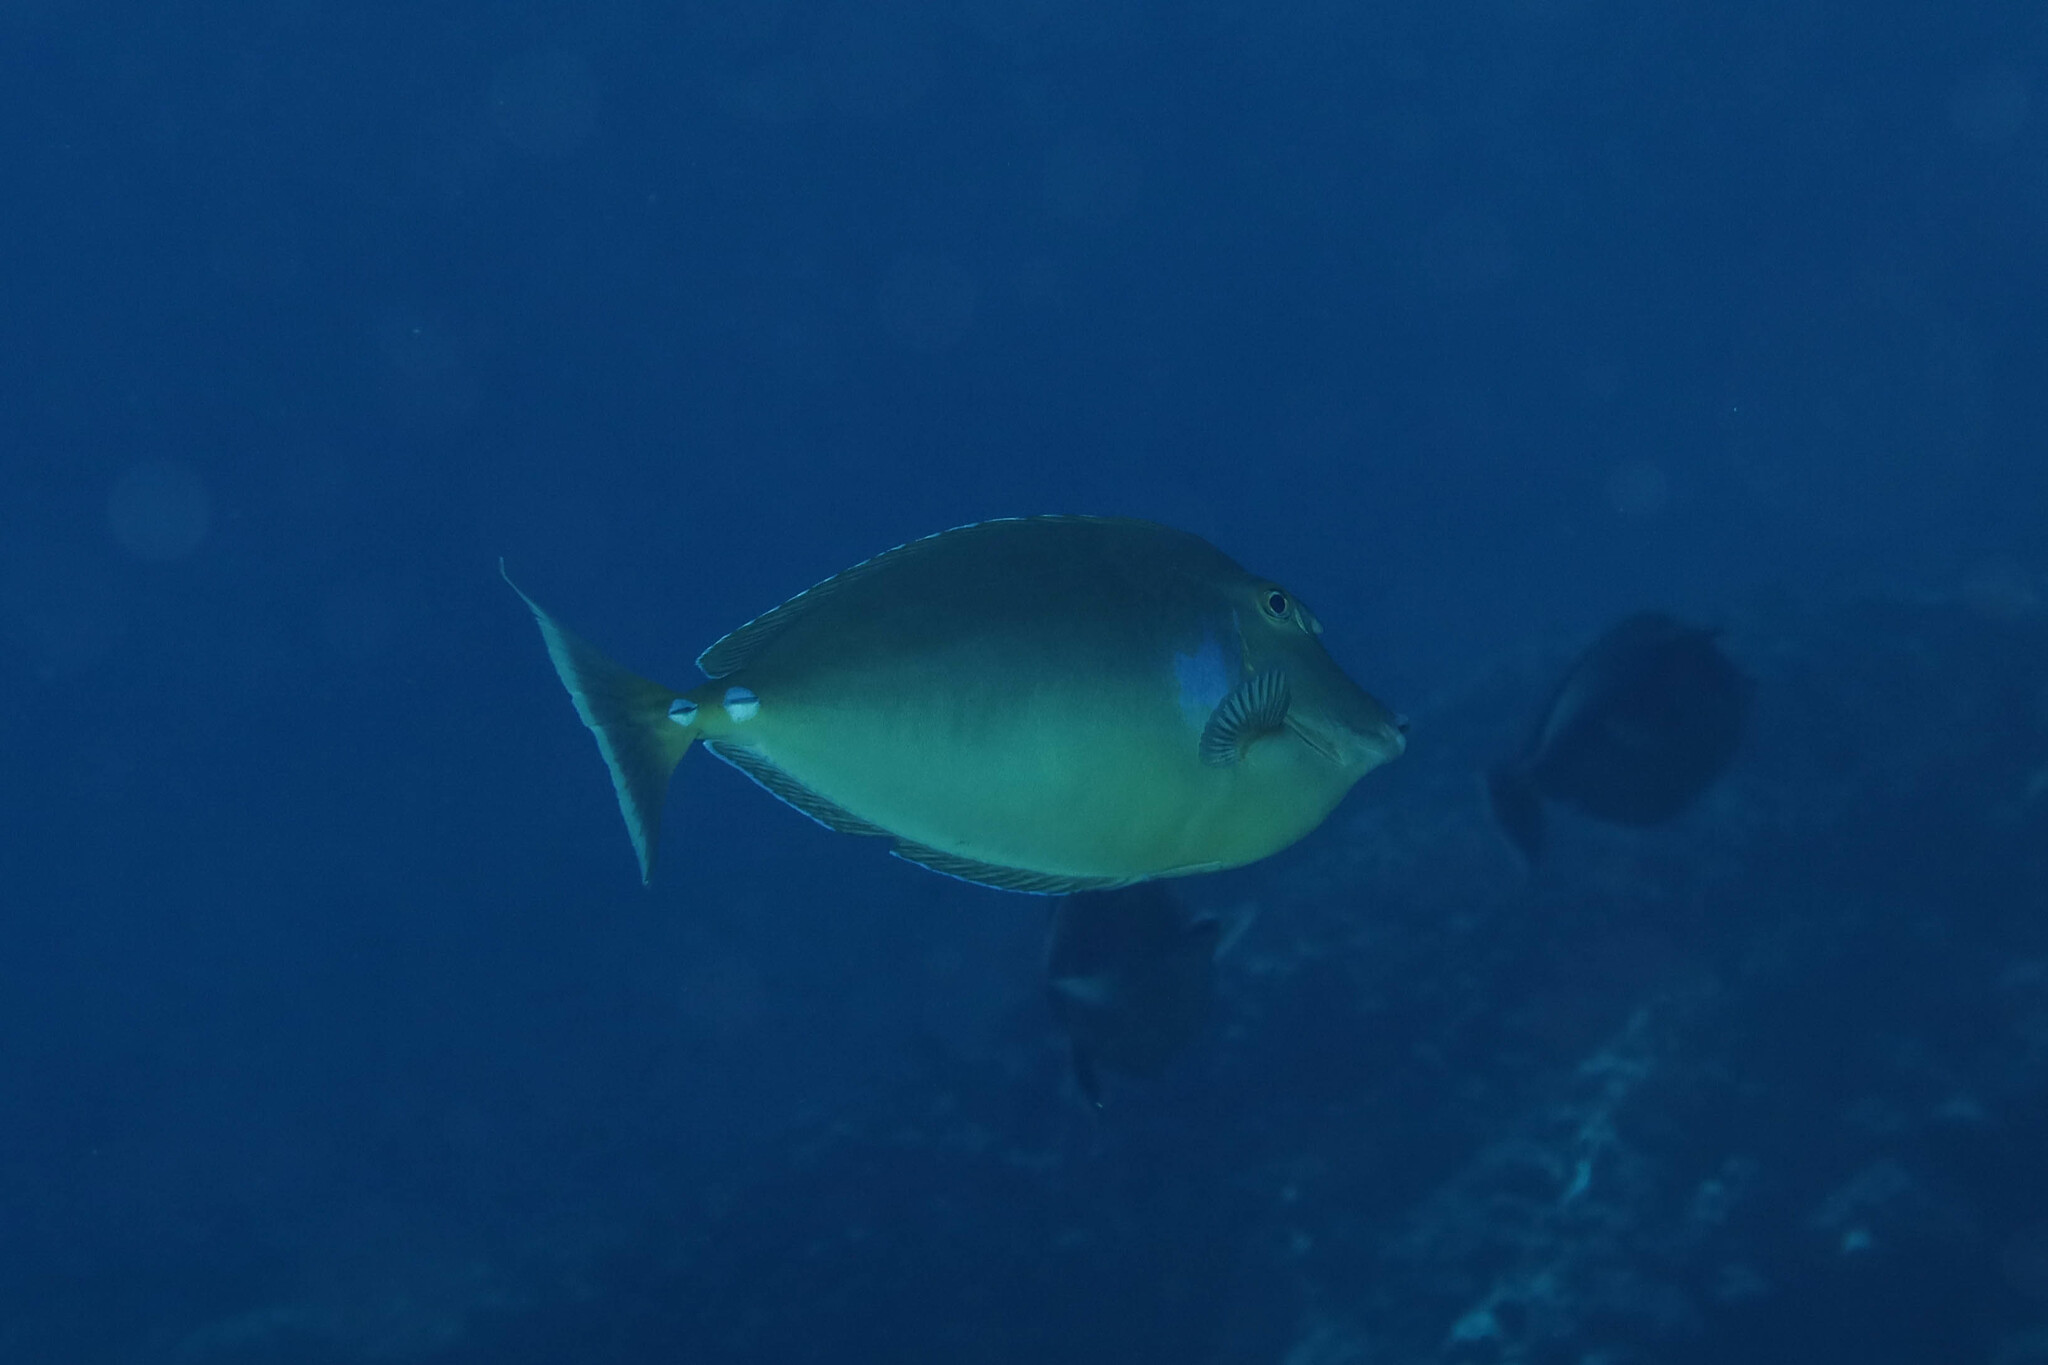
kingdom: Animalia
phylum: Chordata
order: Perciformes
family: Acanthuridae
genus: Naso
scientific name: Naso unicornis
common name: Bluespine unicornfish
